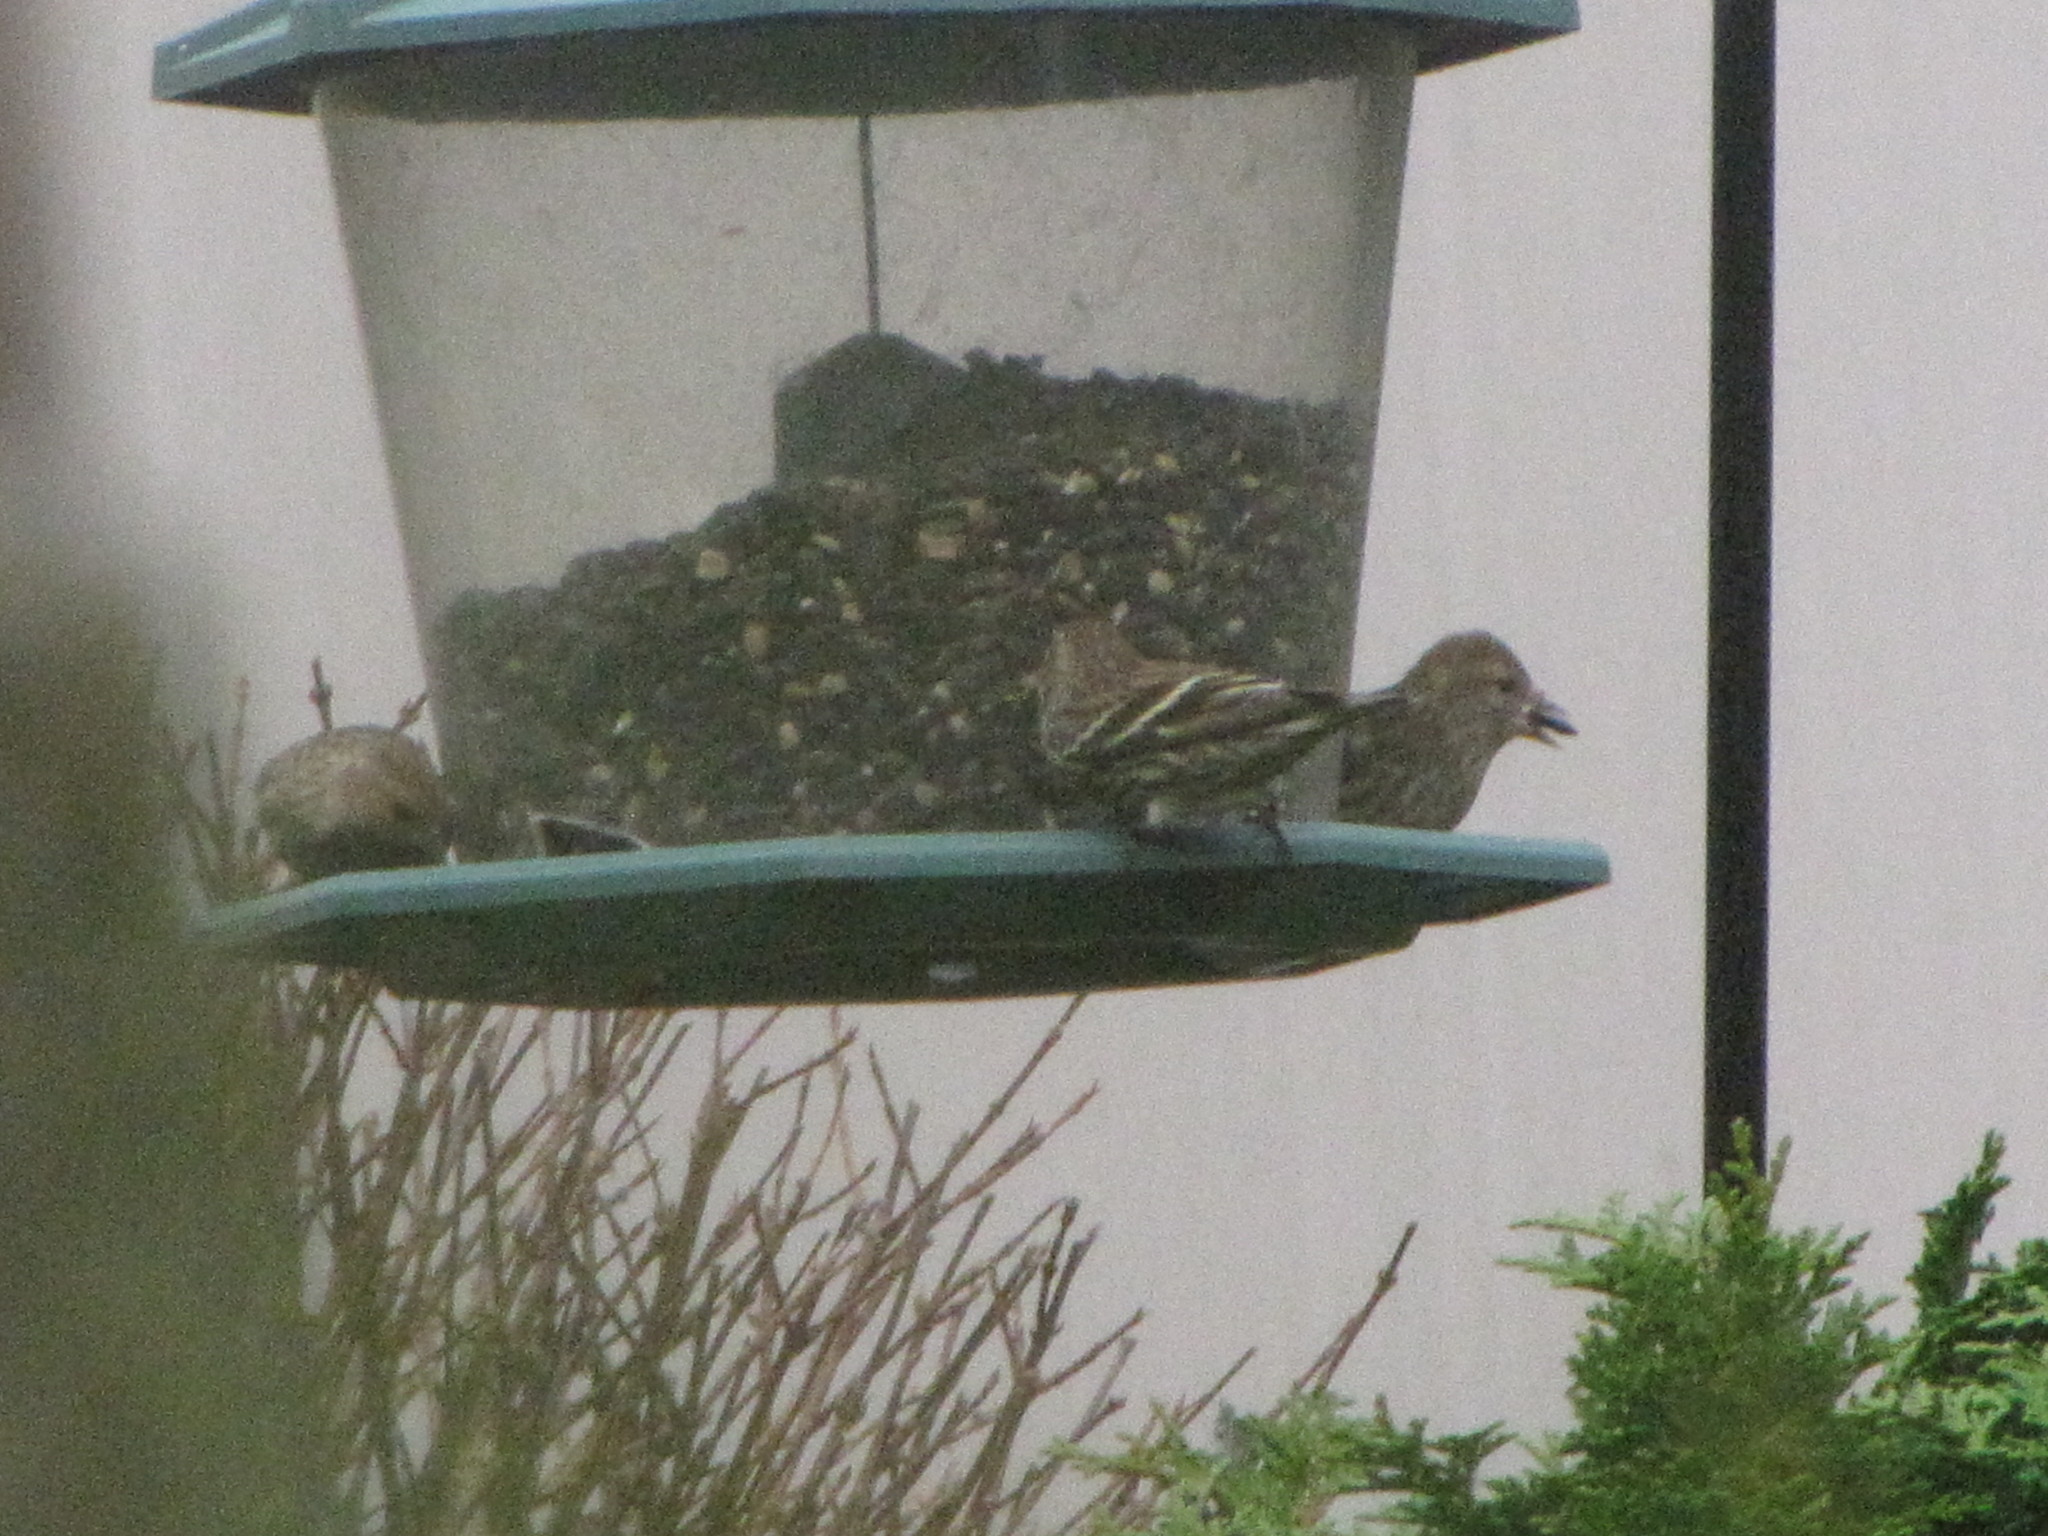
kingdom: Animalia
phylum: Chordata
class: Aves
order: Passeriformes
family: Fringillidae
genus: Spinus
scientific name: Spinus pinus
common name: Pine siskin
